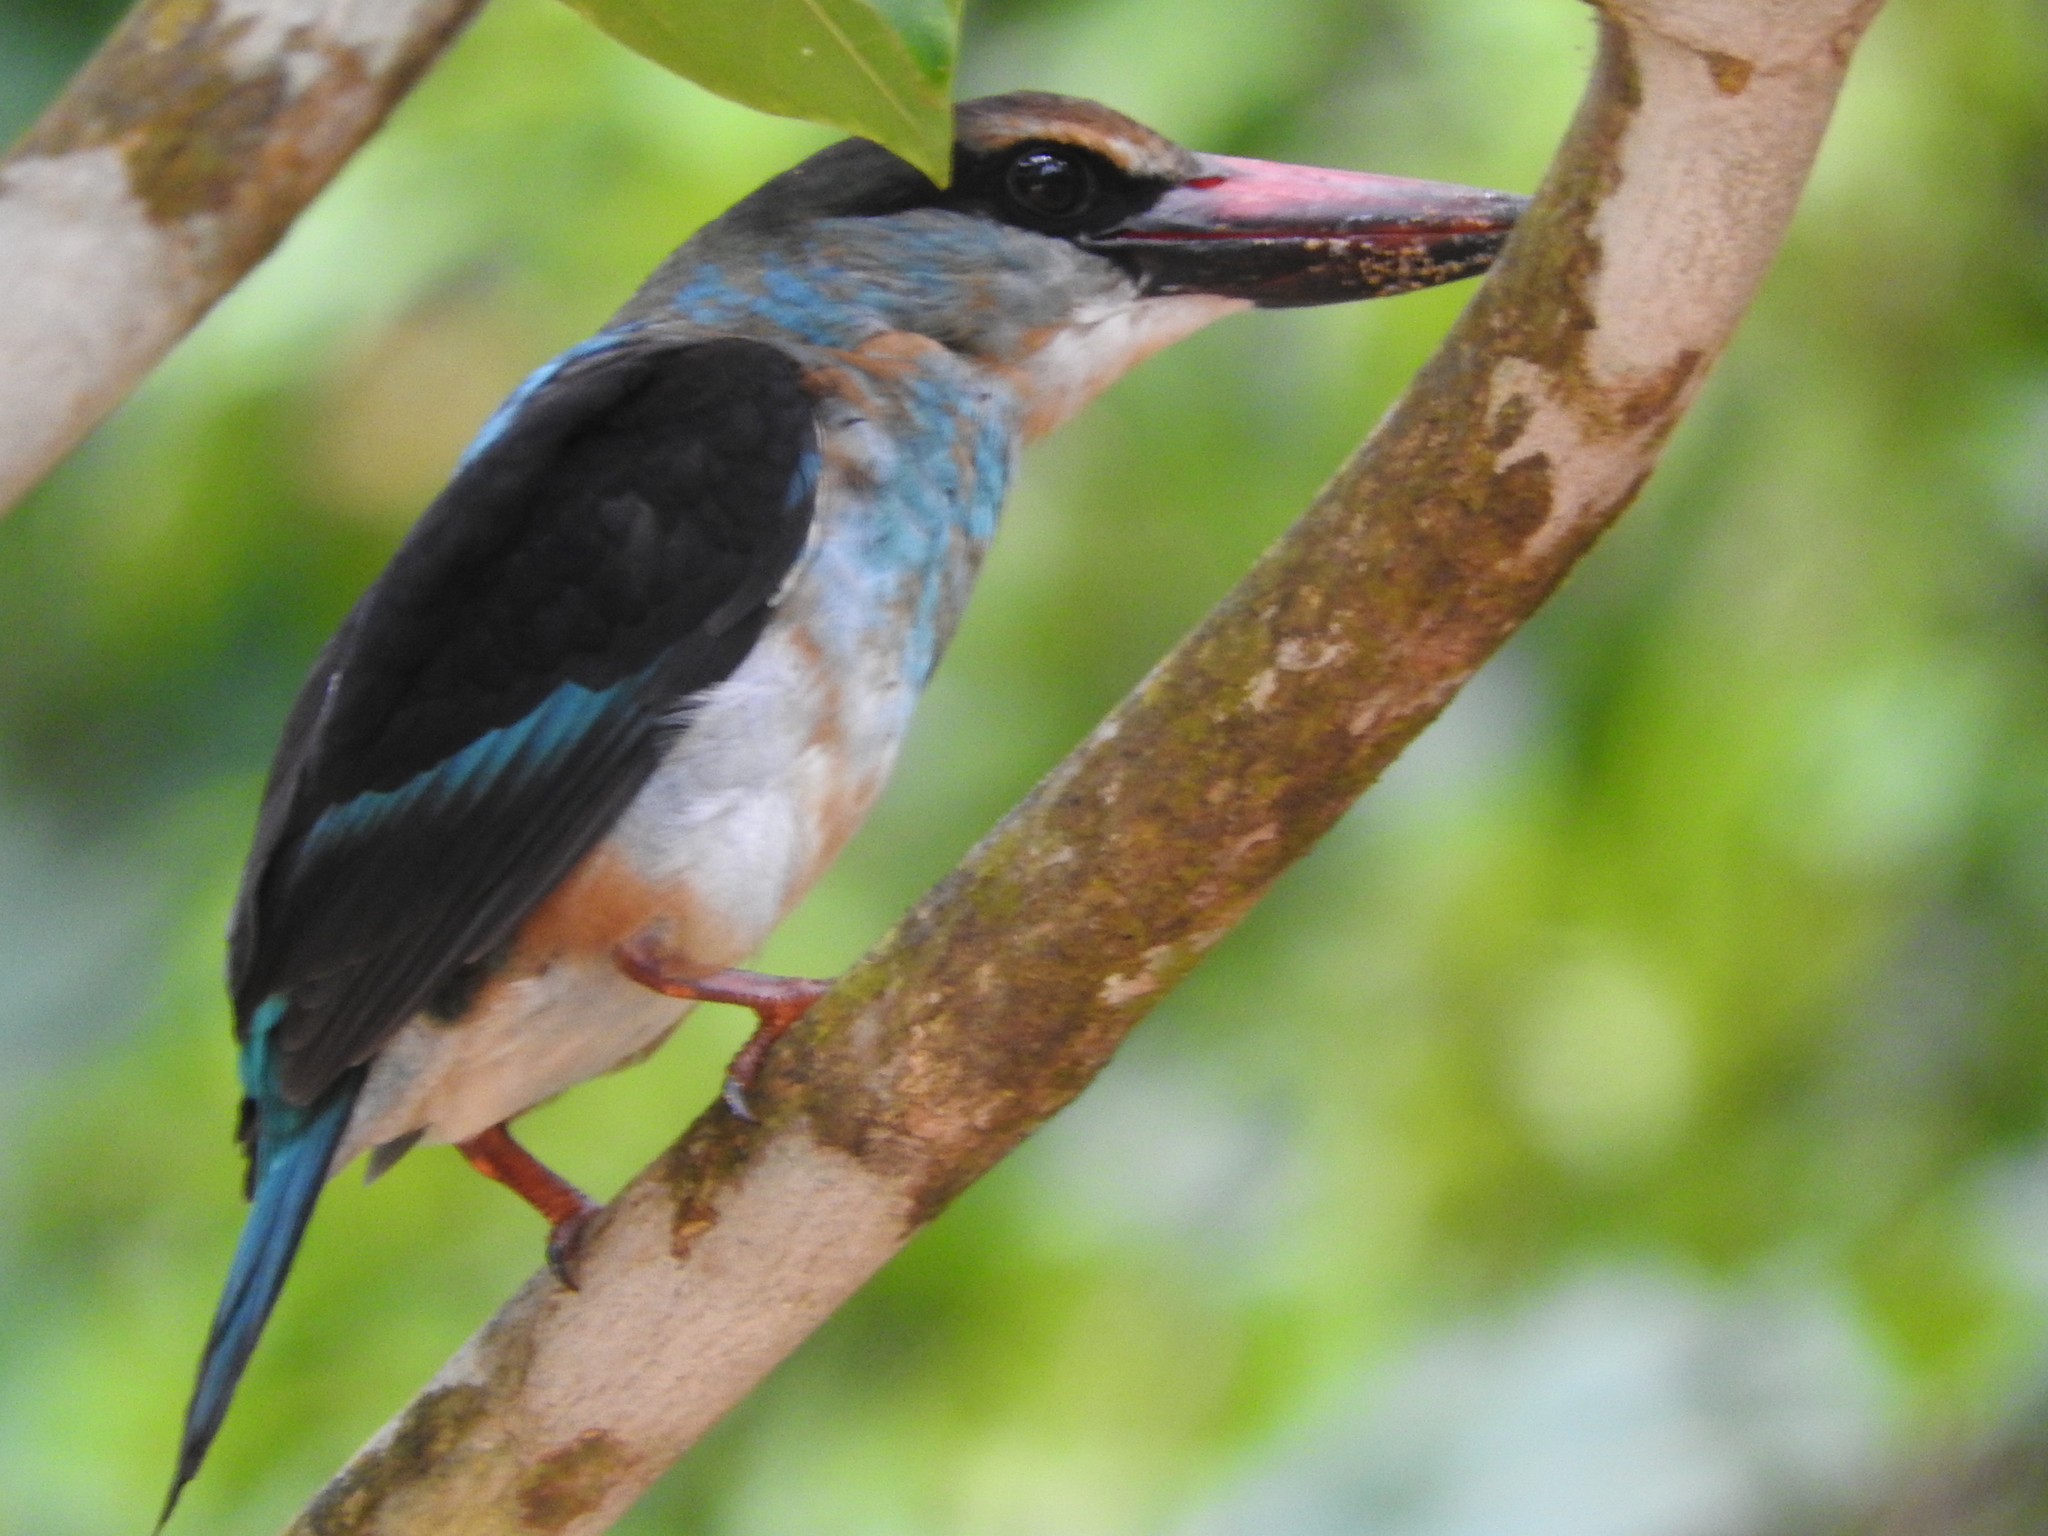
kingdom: Animalia
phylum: Chordata
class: Aves
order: Coraciiformes
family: Alcedinidae
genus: Halcyon
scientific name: Halcyon malimbica
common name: Blue-breasted kingfisher
